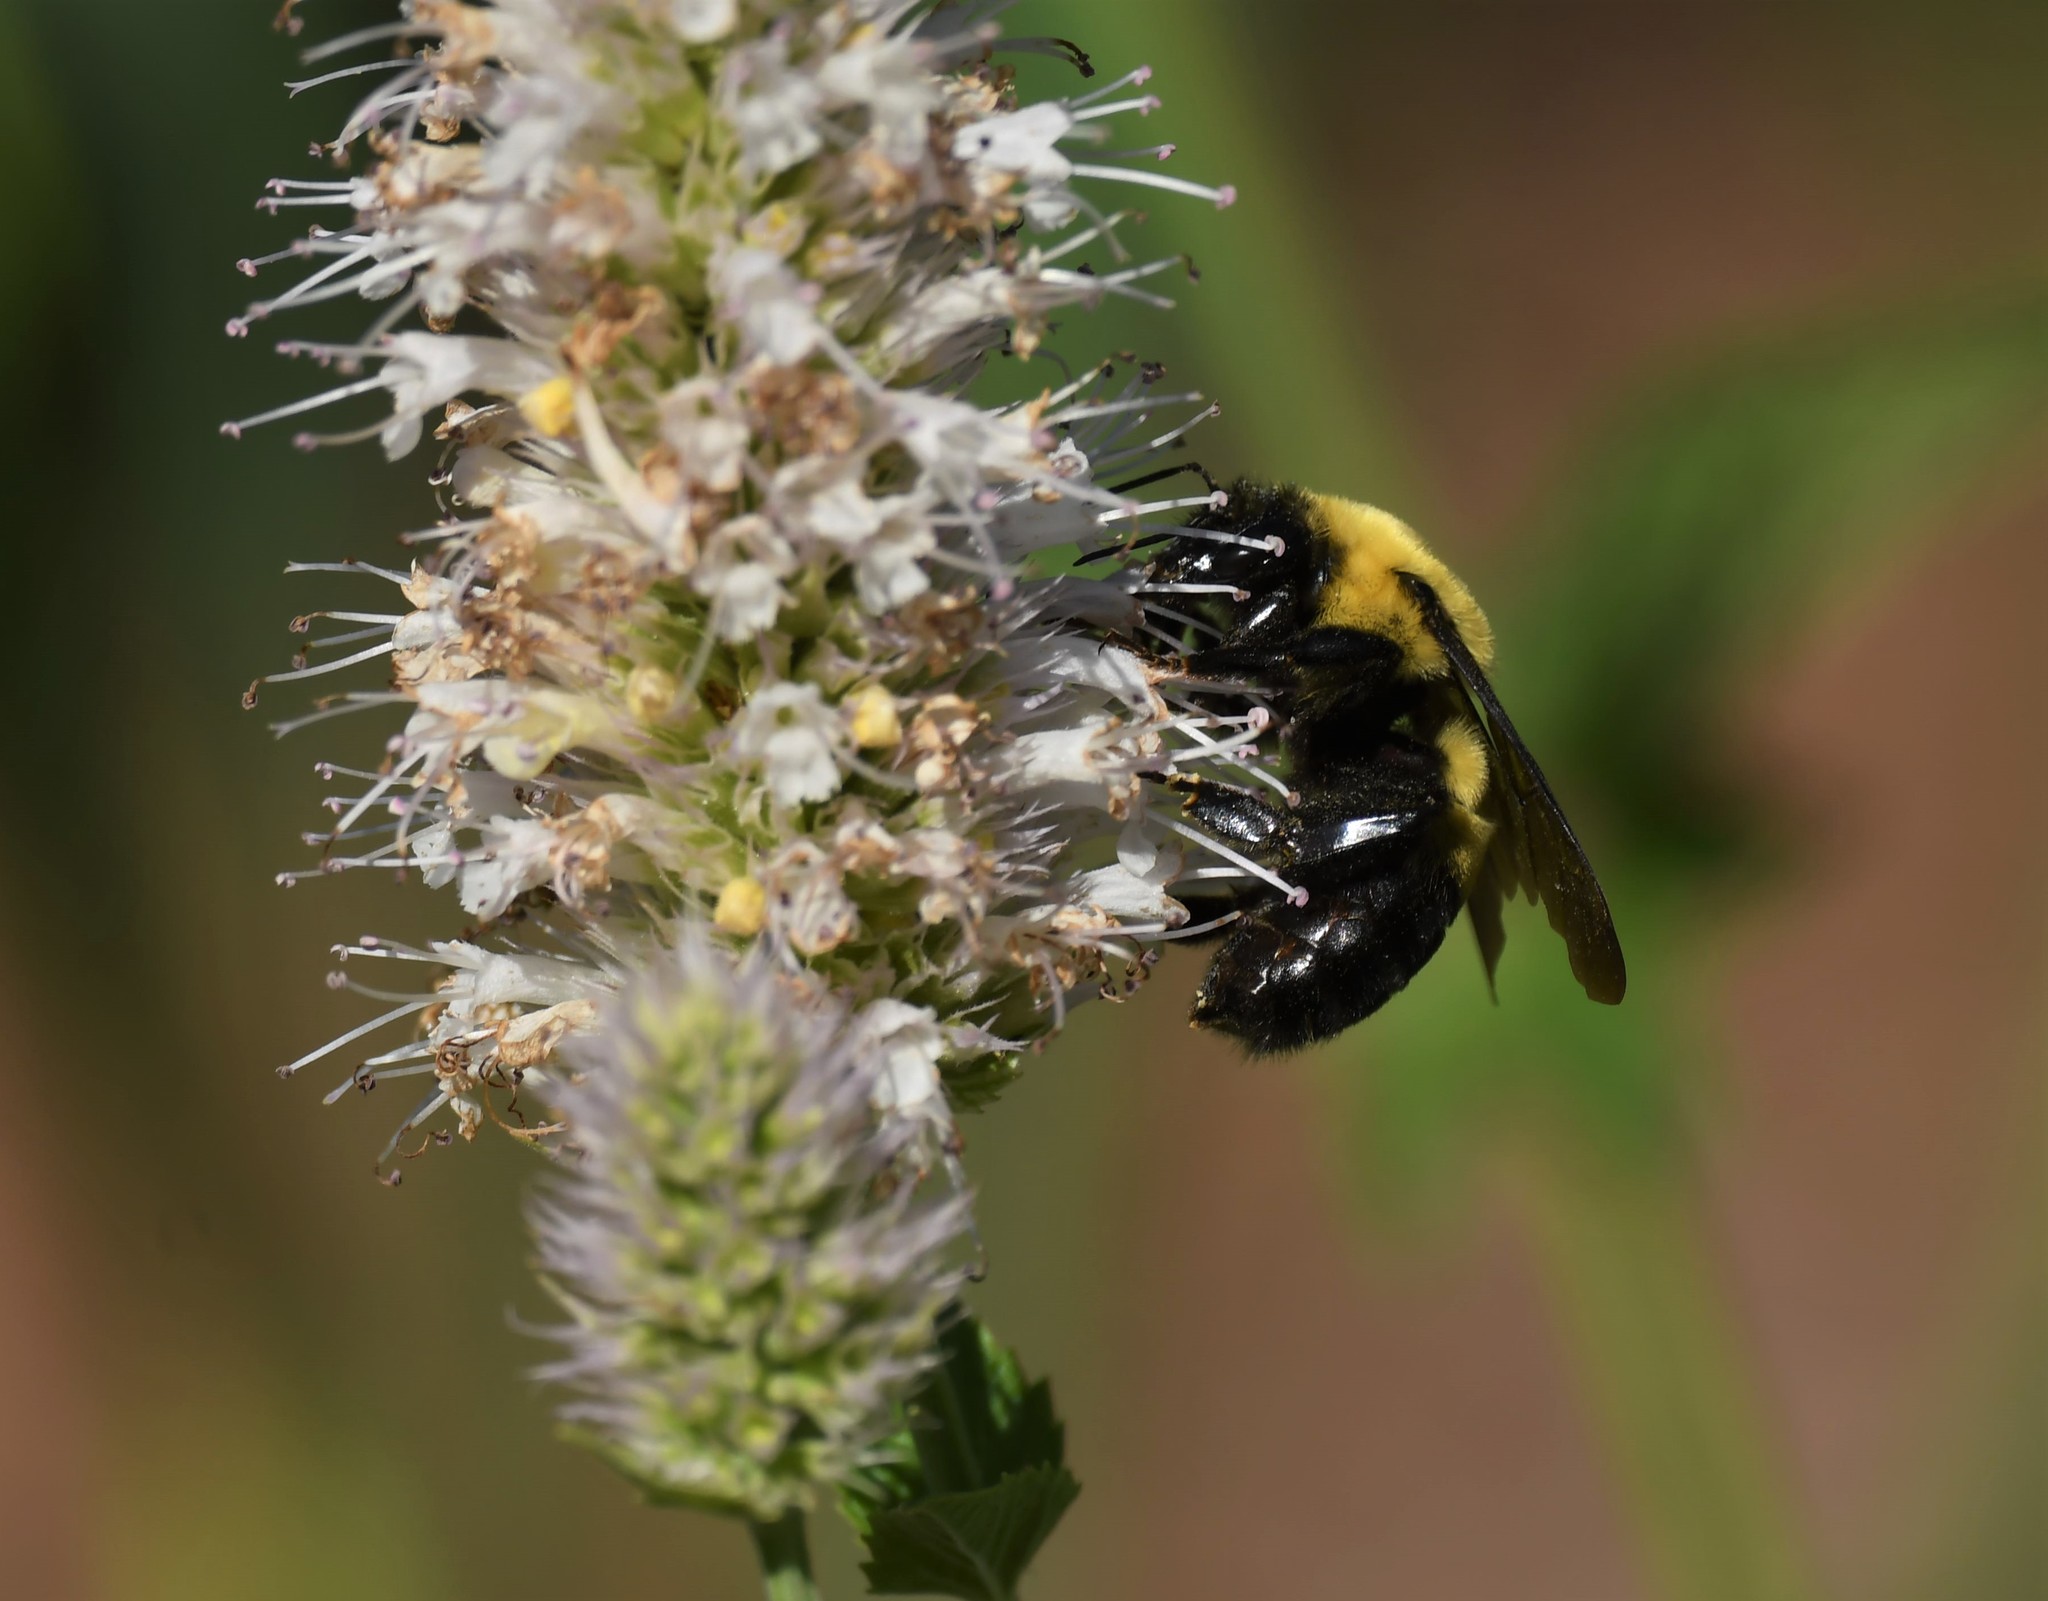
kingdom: Animalia
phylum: Arthropoda
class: Insecta
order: Hymenoptera
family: Apidae
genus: Bombus
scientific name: Bombus griseocollis
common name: Brown-belted bumble bee
